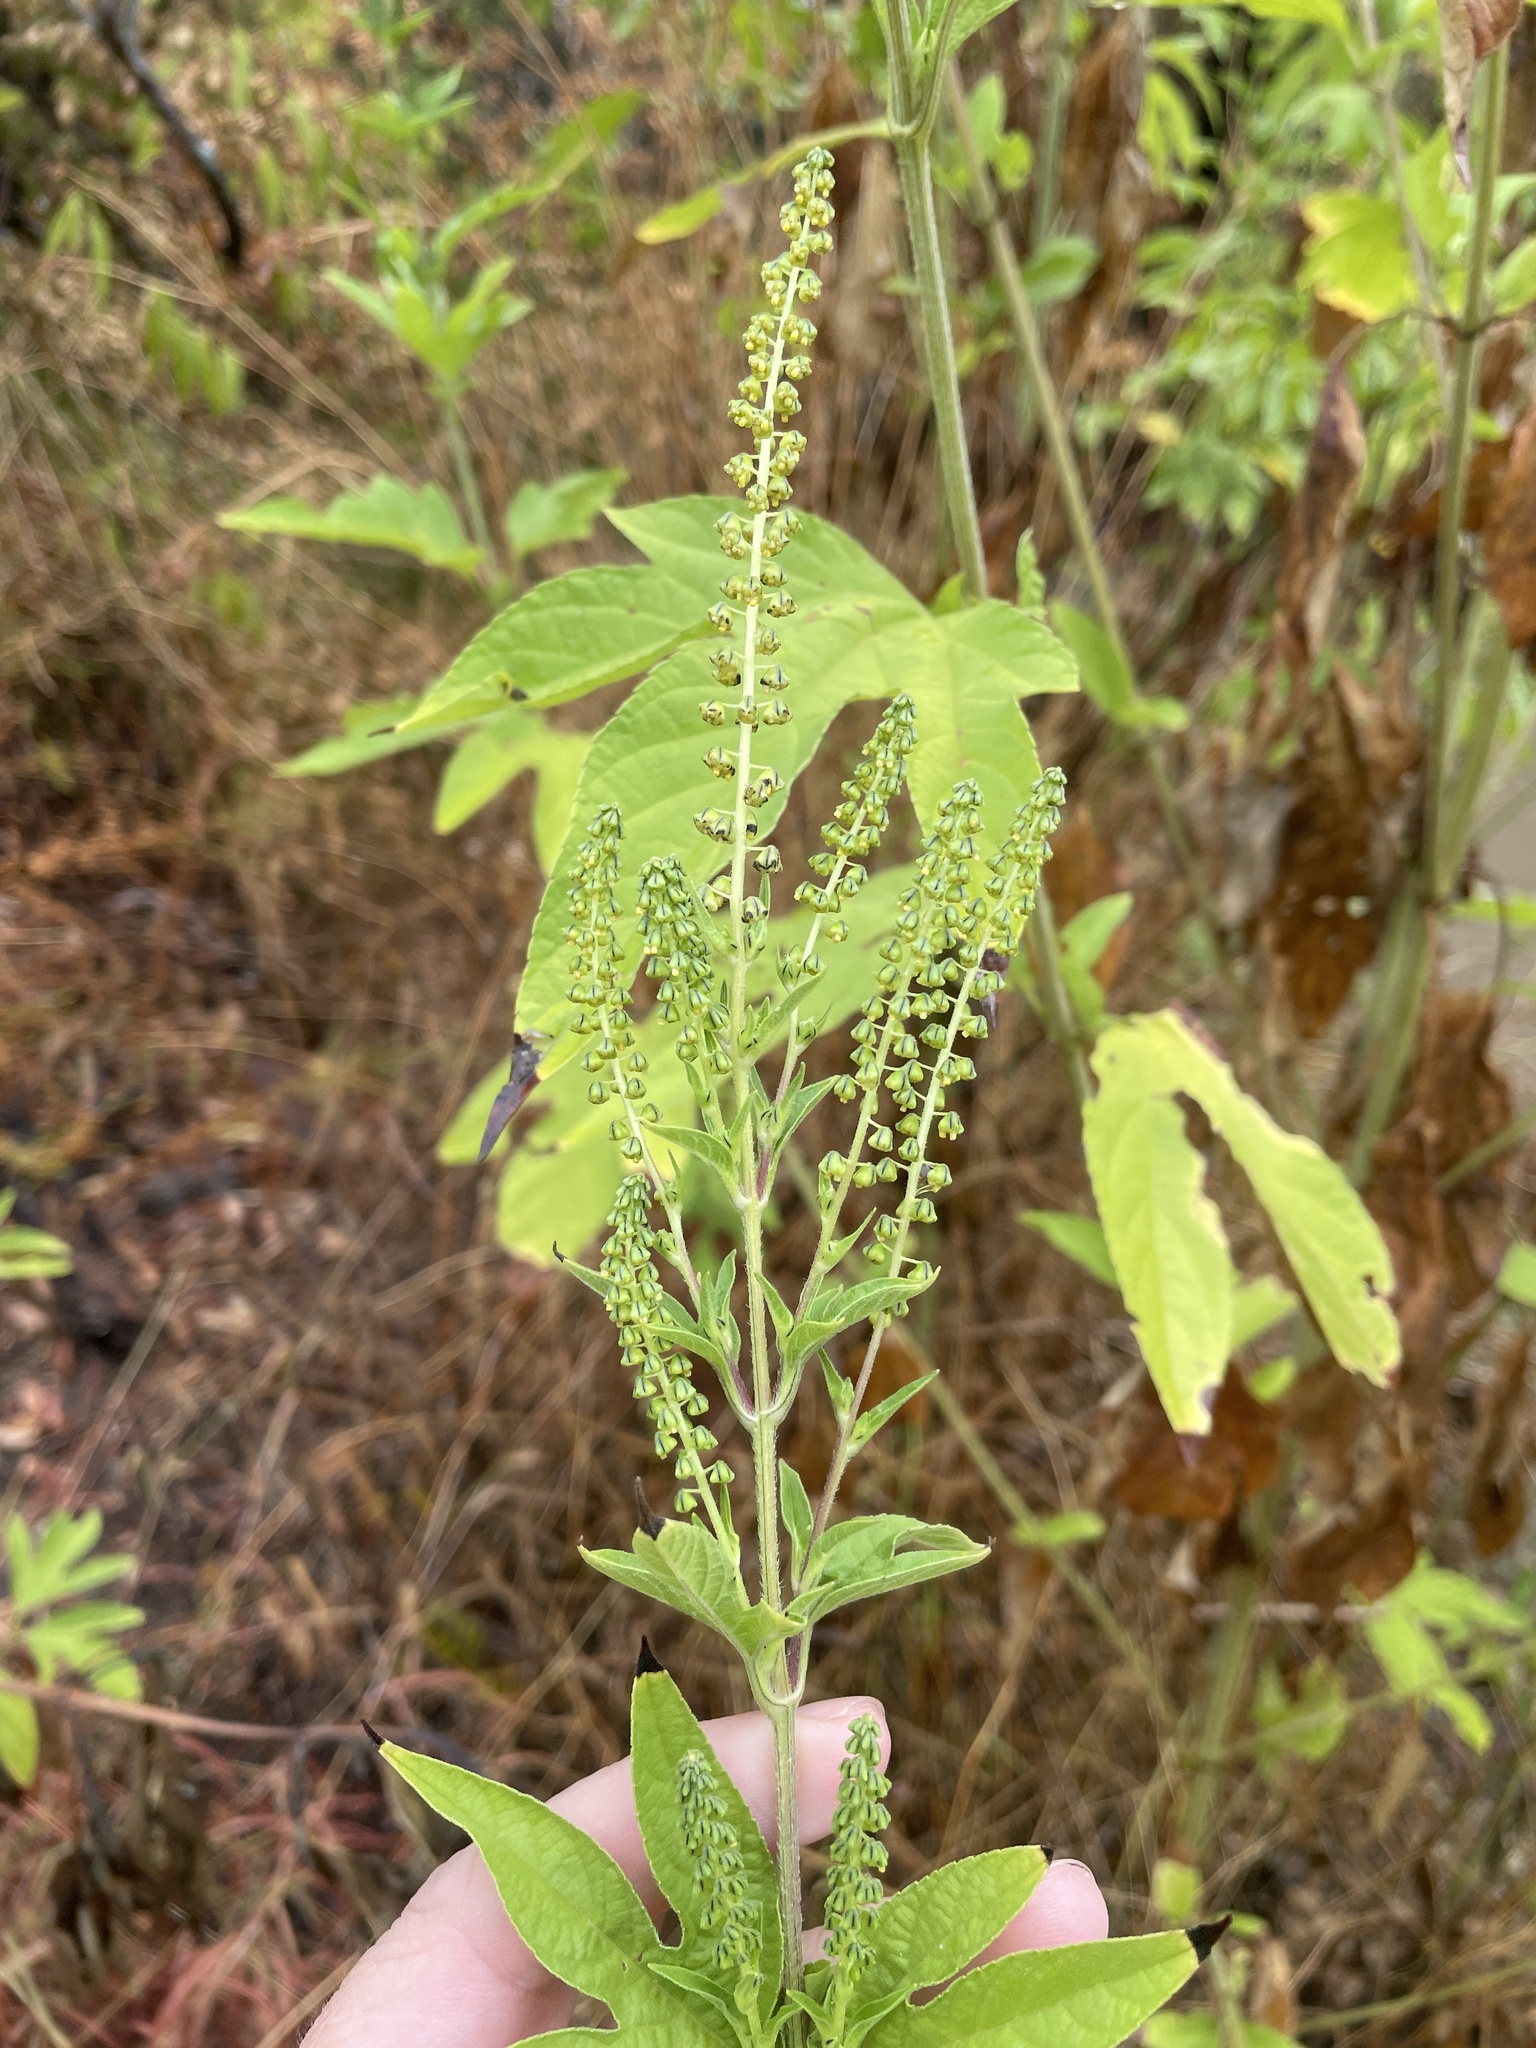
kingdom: Plantae
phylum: Tracheophyta
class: Magnoliopsida
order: Asterales
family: Asteraceae
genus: Ambrosia
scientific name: Ambrosia trifida
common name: Giant ragweed
